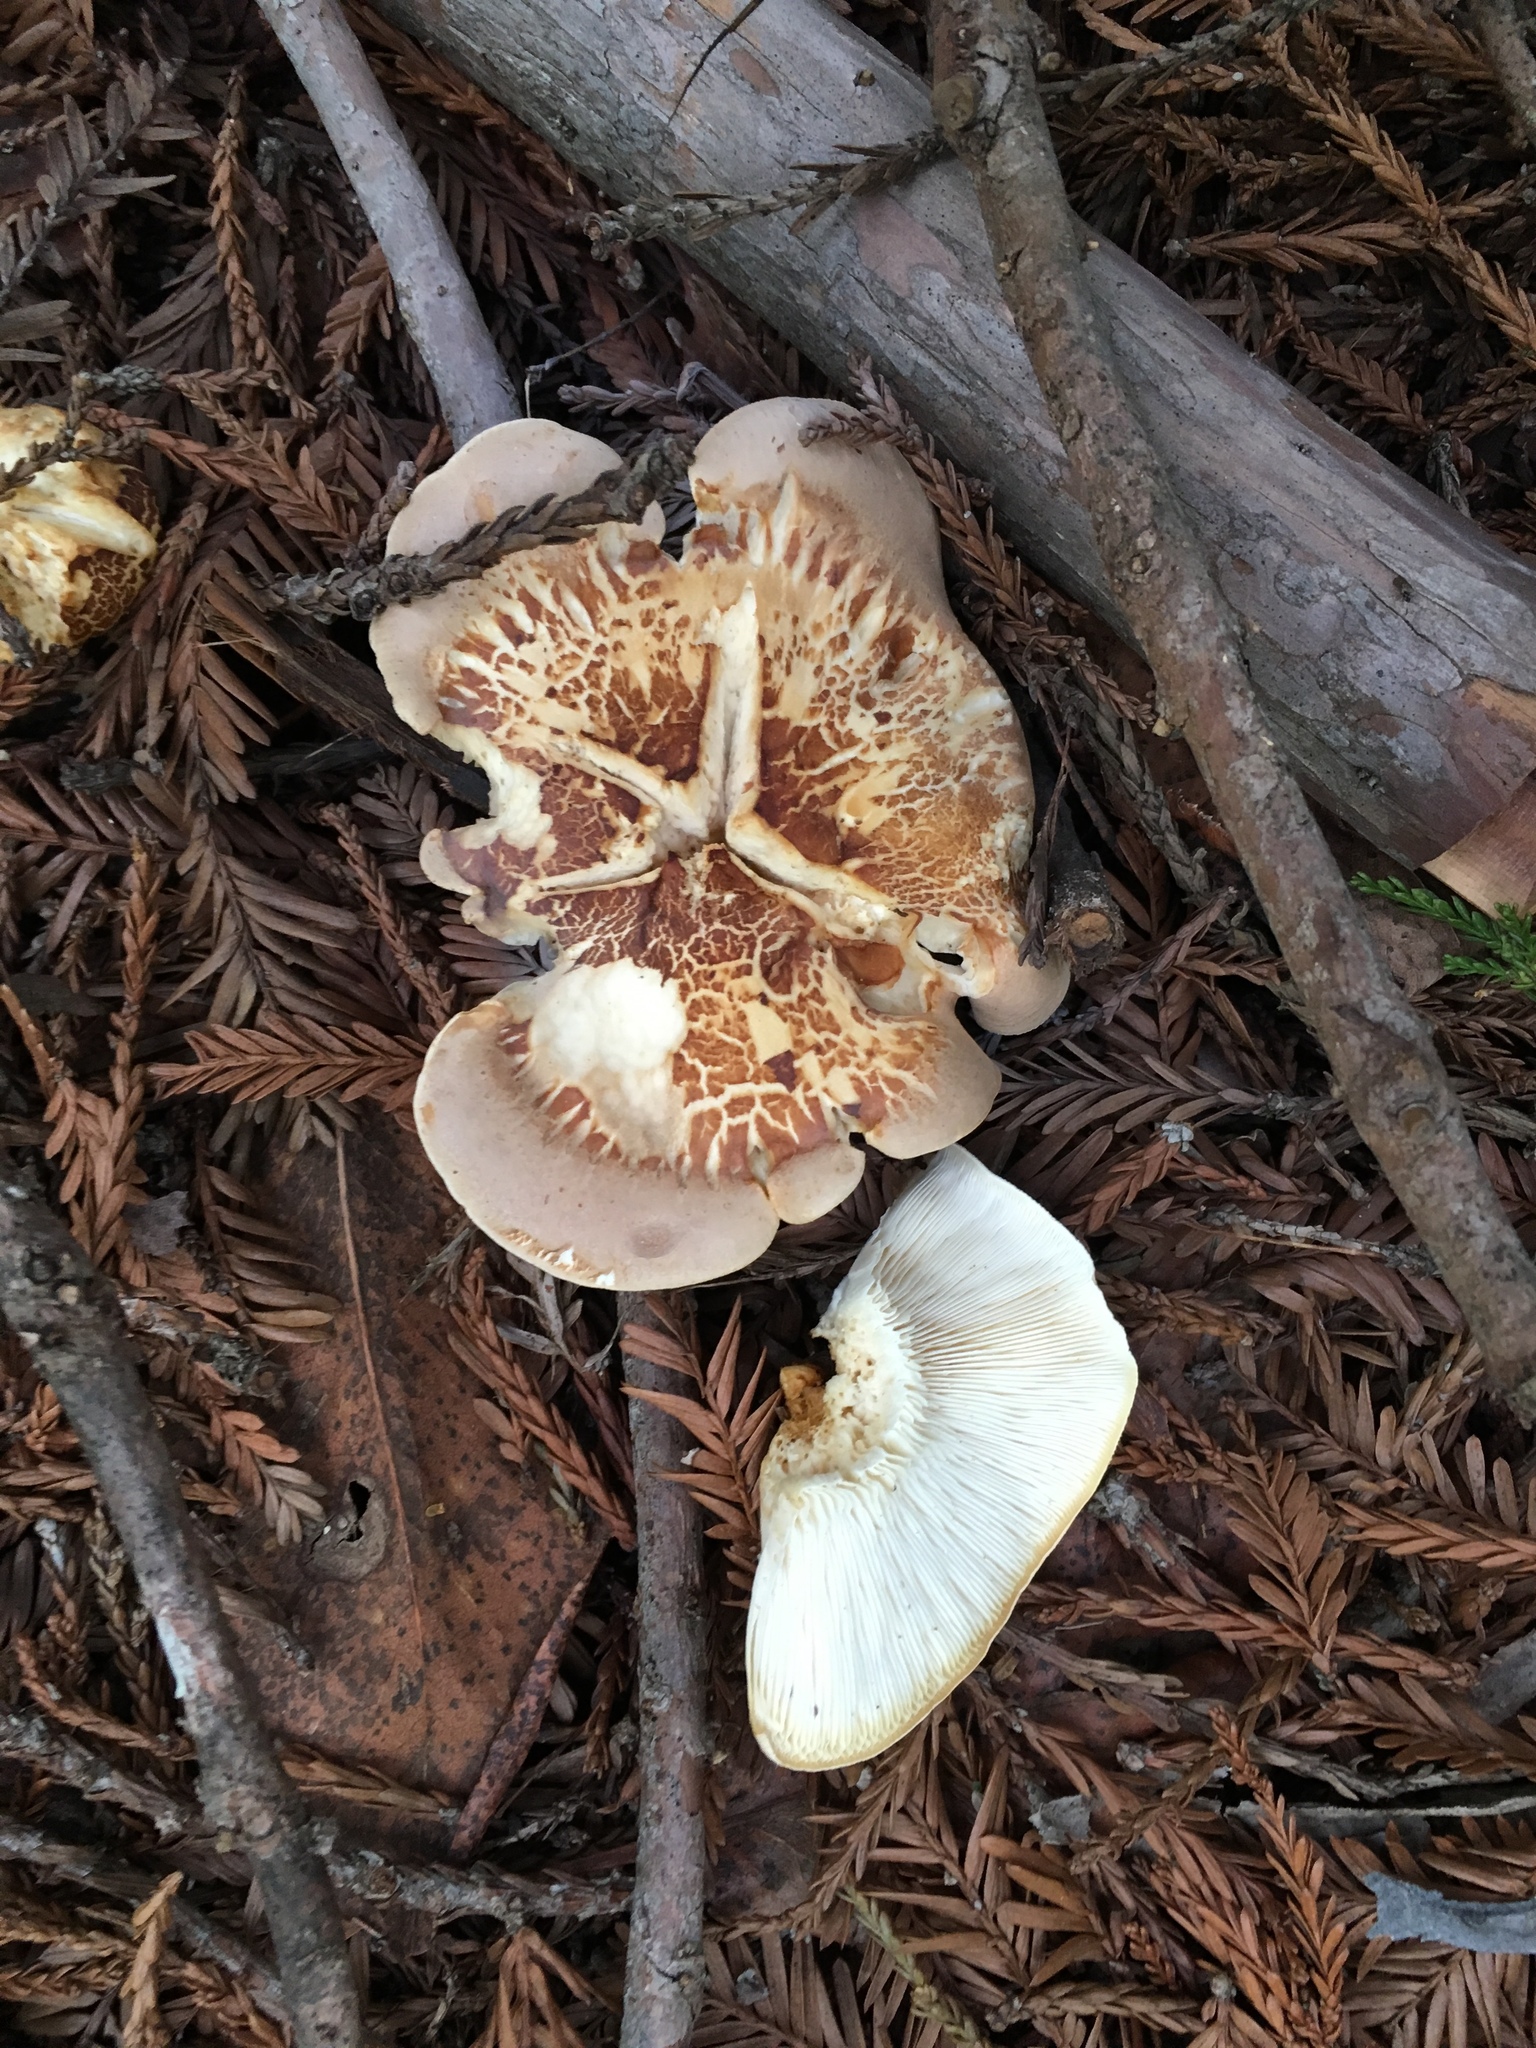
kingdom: Fungi
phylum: Basidiomycota
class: Agaricomycetes
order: Agaricales
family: Tricholomataceae
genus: Leucopaxillus
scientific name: Leucopaxillus gentianeus
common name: Bitter funnel
